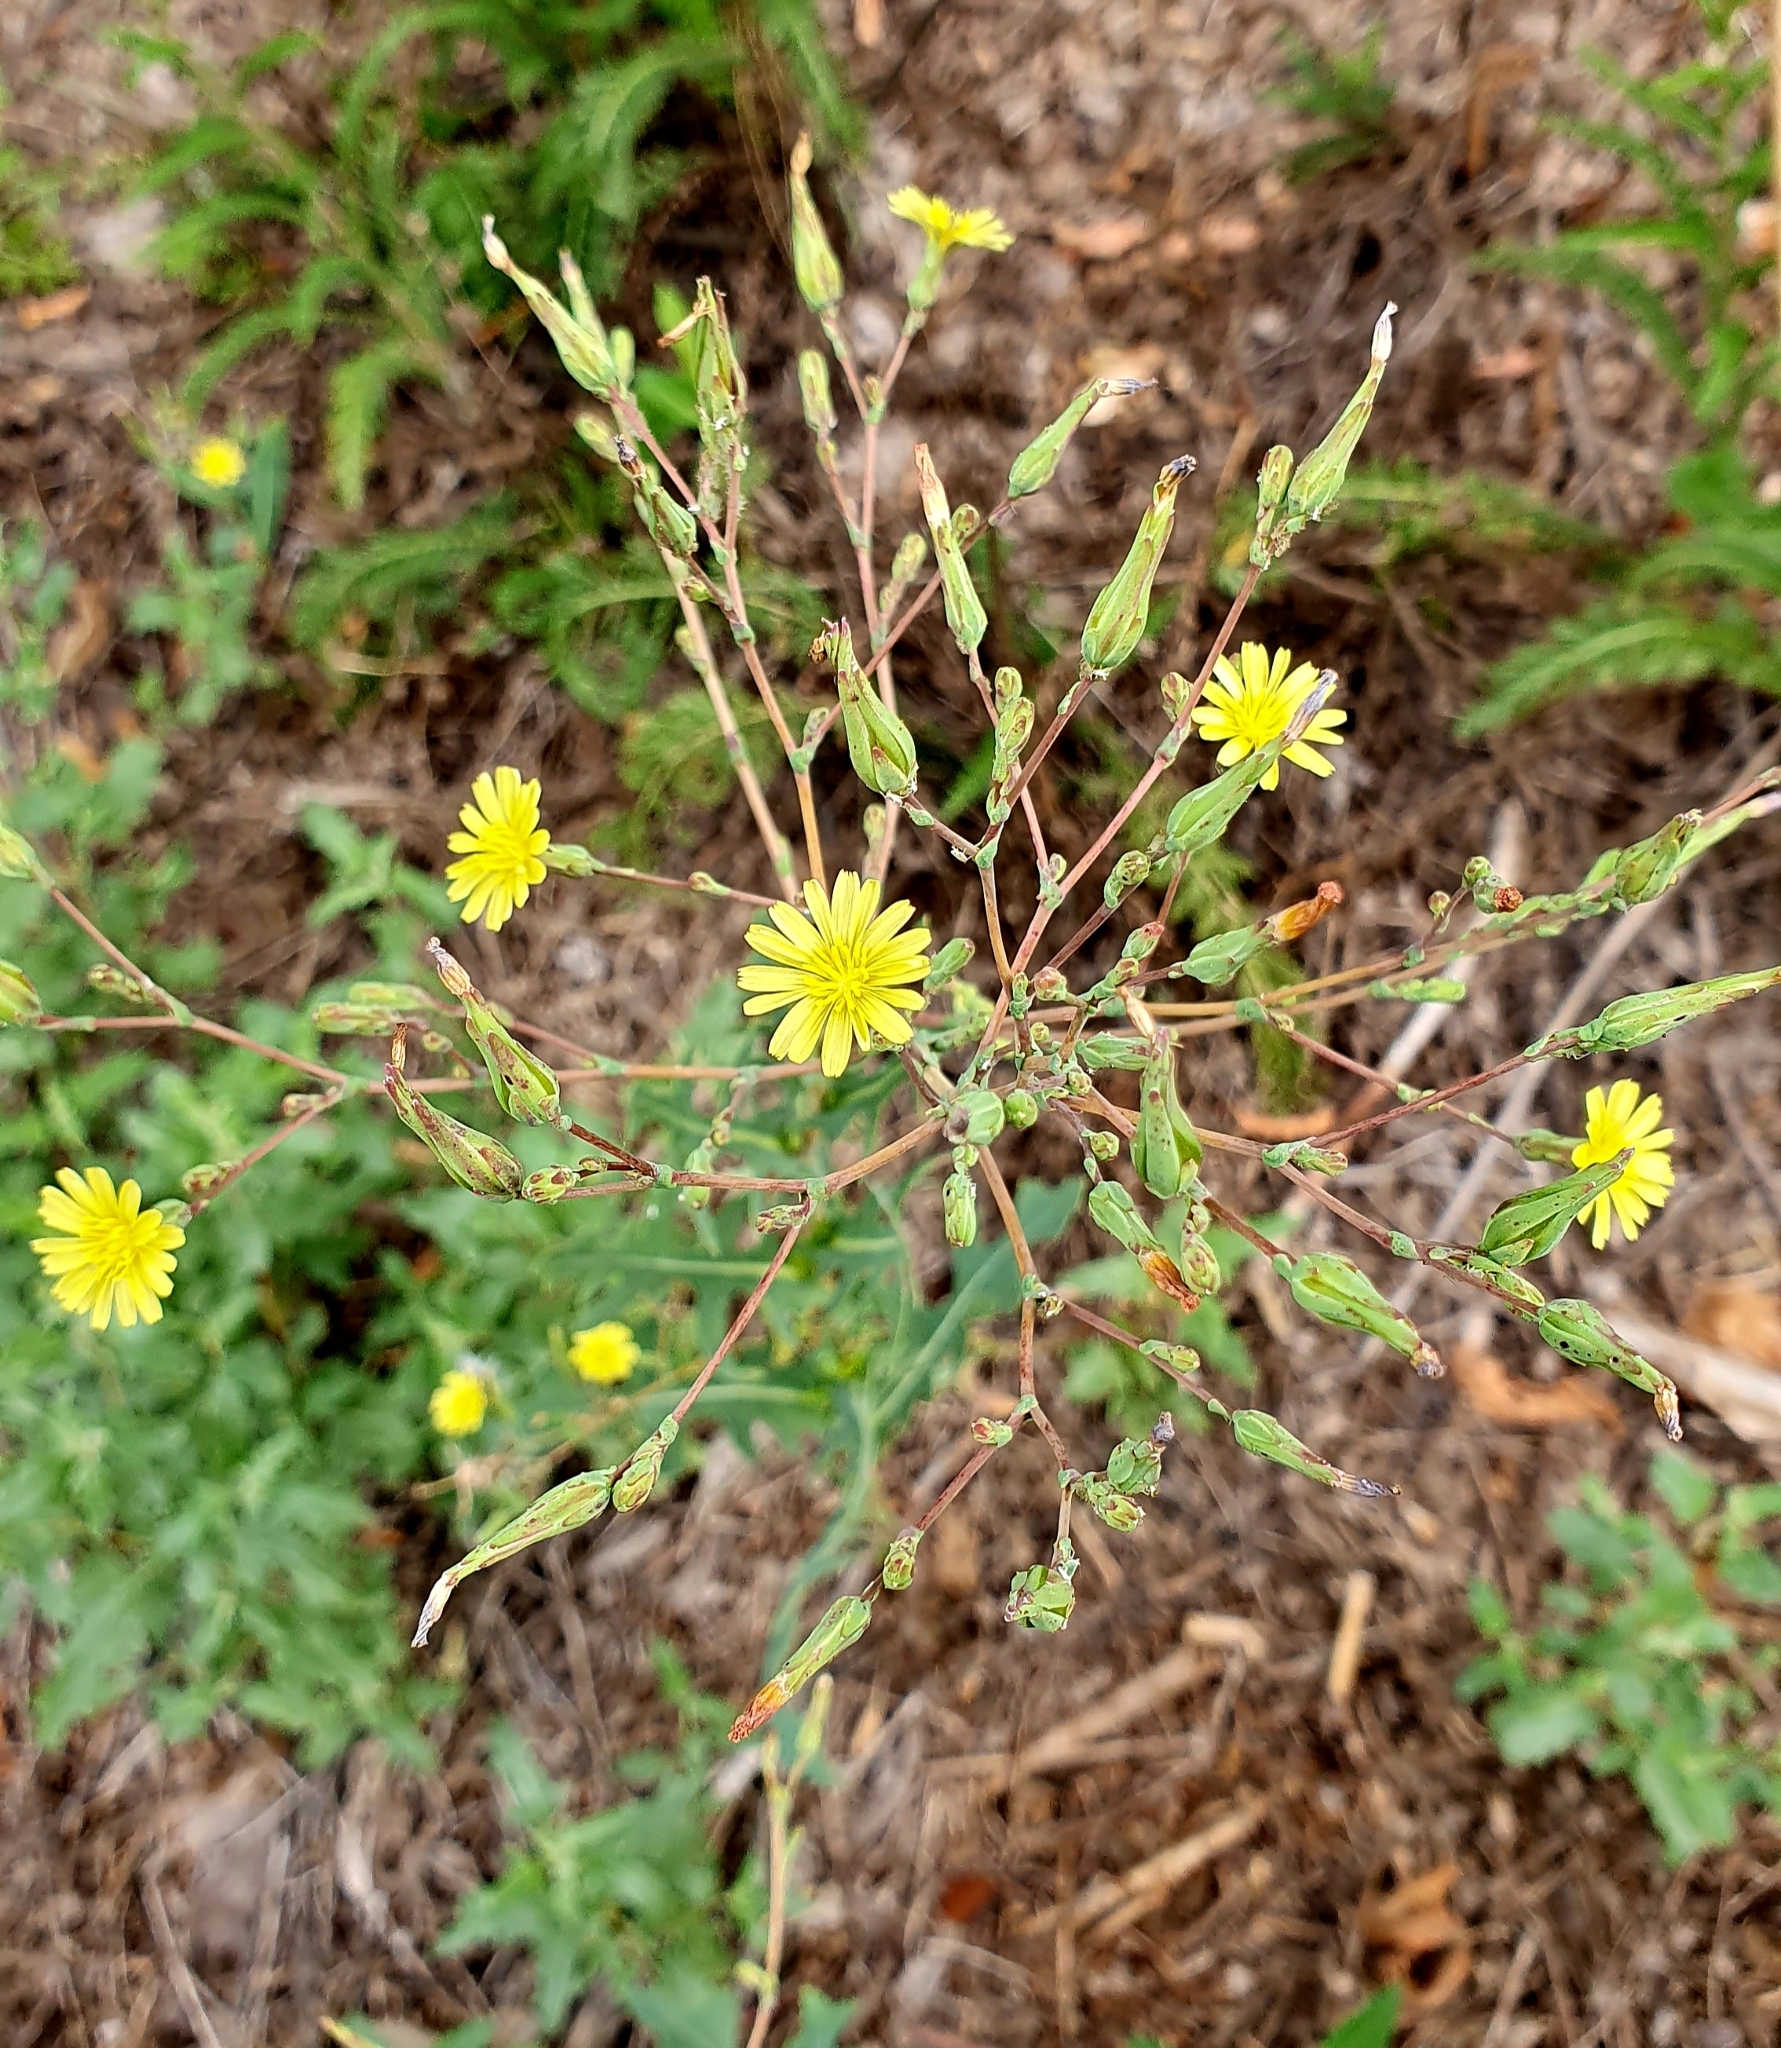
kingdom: Plantae
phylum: Tracheophyta
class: Magnoliopsida
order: Asterales
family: Asteraceae
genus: Lactuca
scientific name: Lactuca serriola
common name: Prickly lettuce
